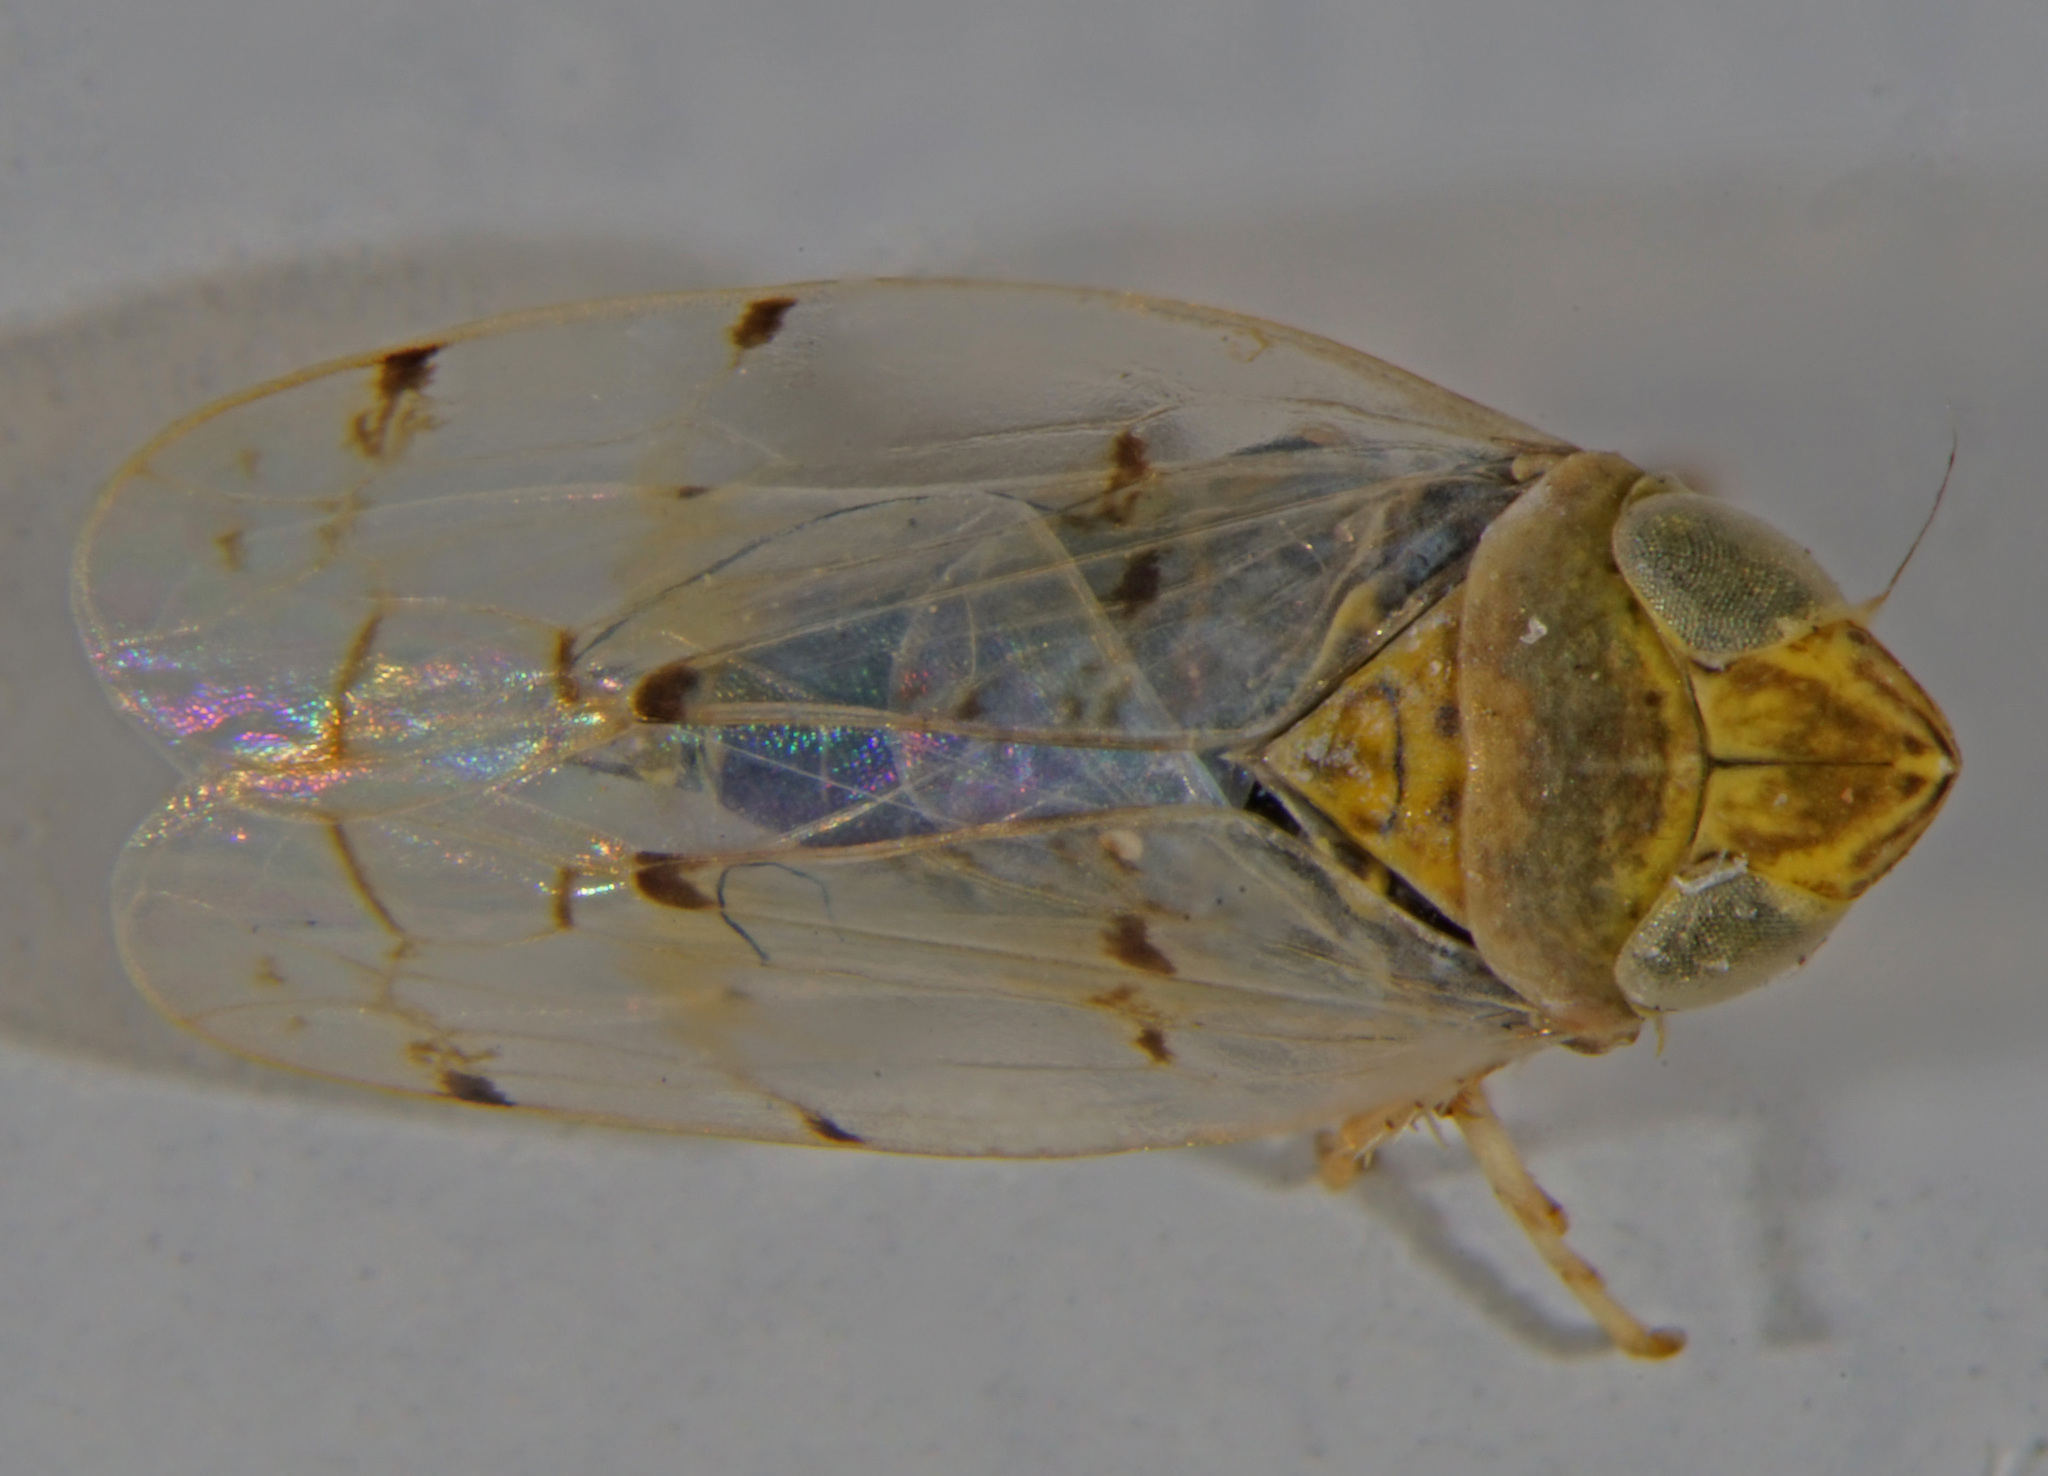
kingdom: Animalia
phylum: Arthropoda
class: Insecta
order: Hemiptera
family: Cicadellidae
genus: Japananus
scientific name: Japananus hyalinus
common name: The japanese maple leafhopper
